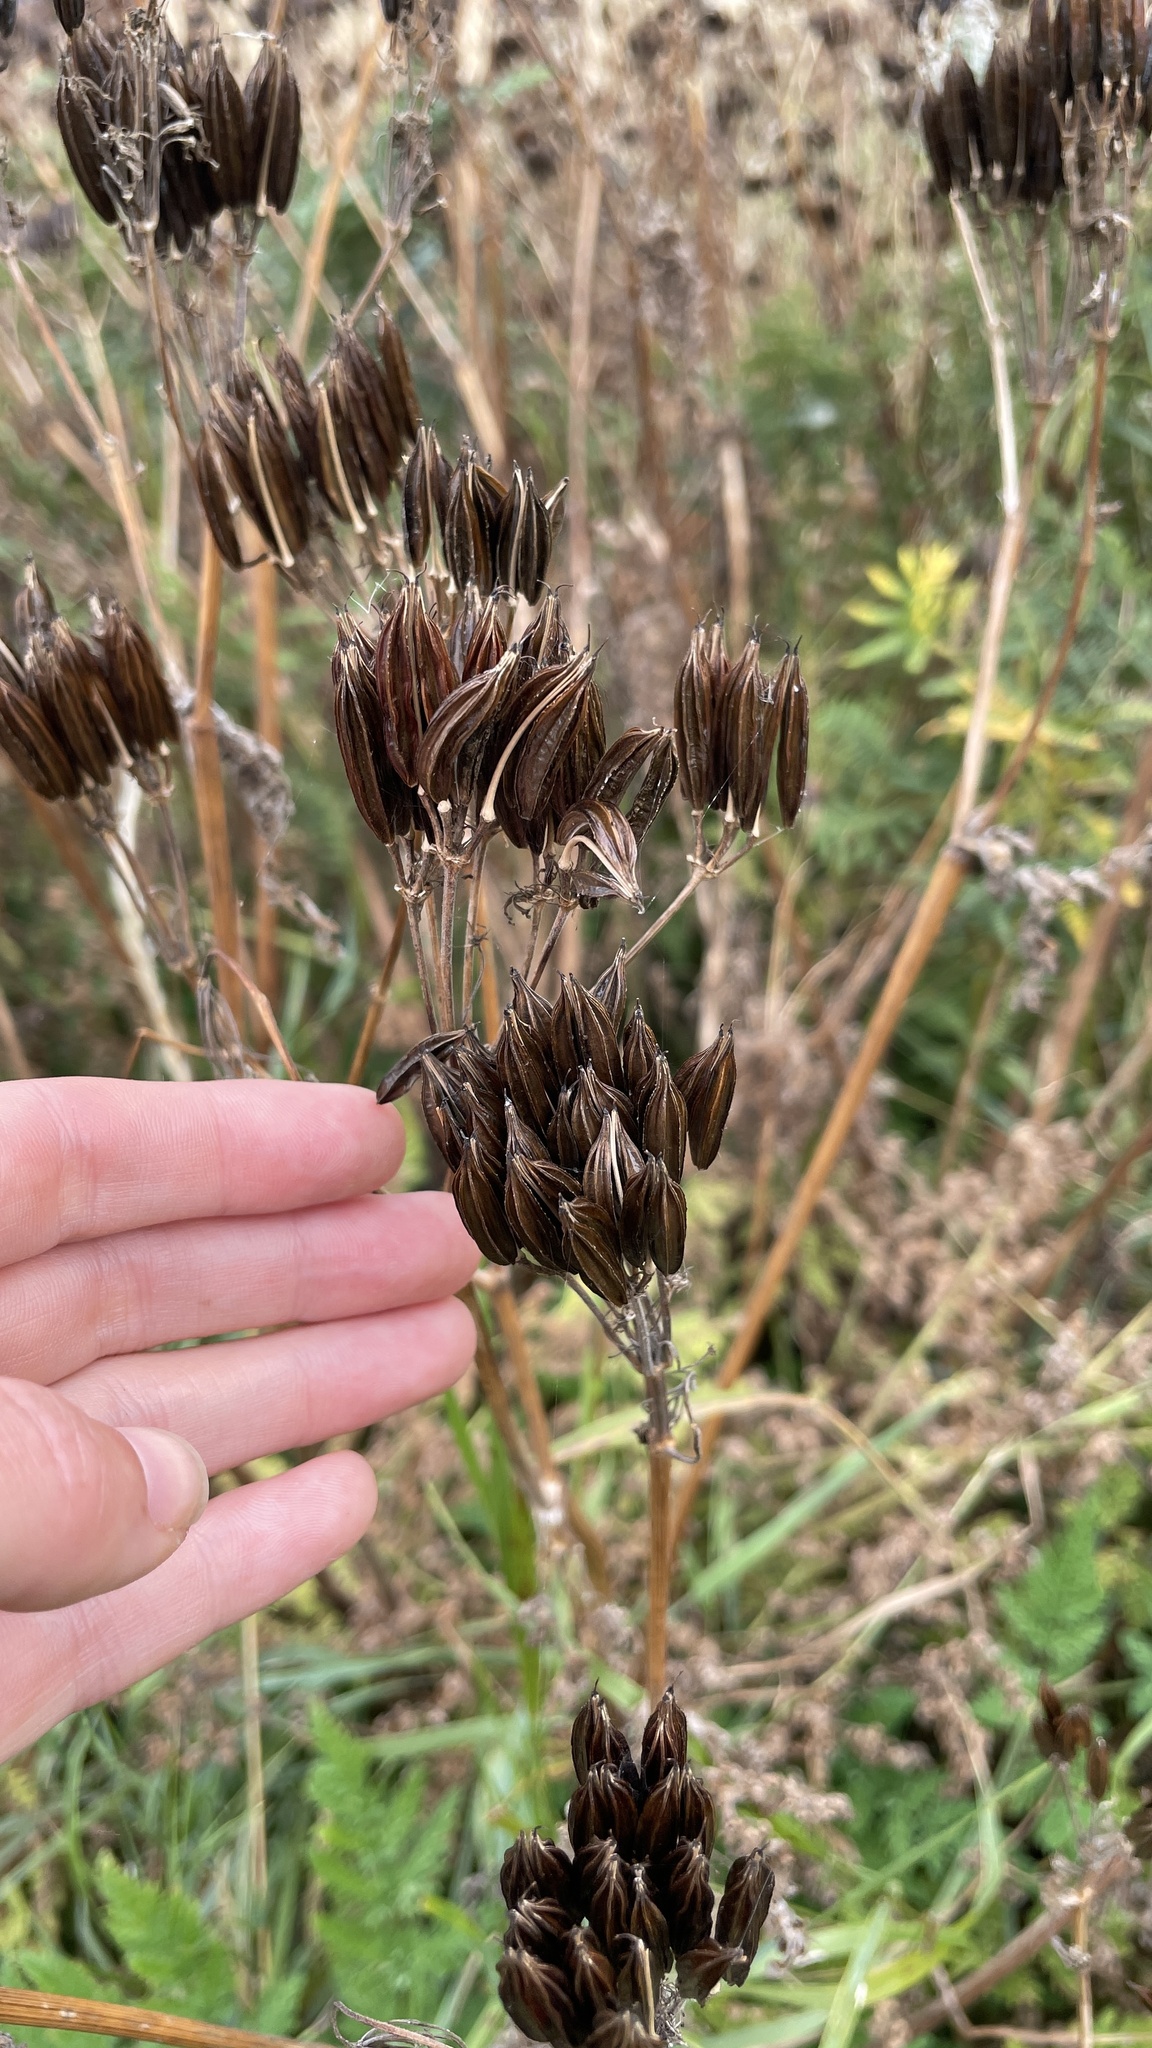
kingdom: Plantae
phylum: Tracheophyta
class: Magnoliopsida
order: Apiales
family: Apiaceae
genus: Myrrhis
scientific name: Myrrhis odorata
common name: Sweet cicely
